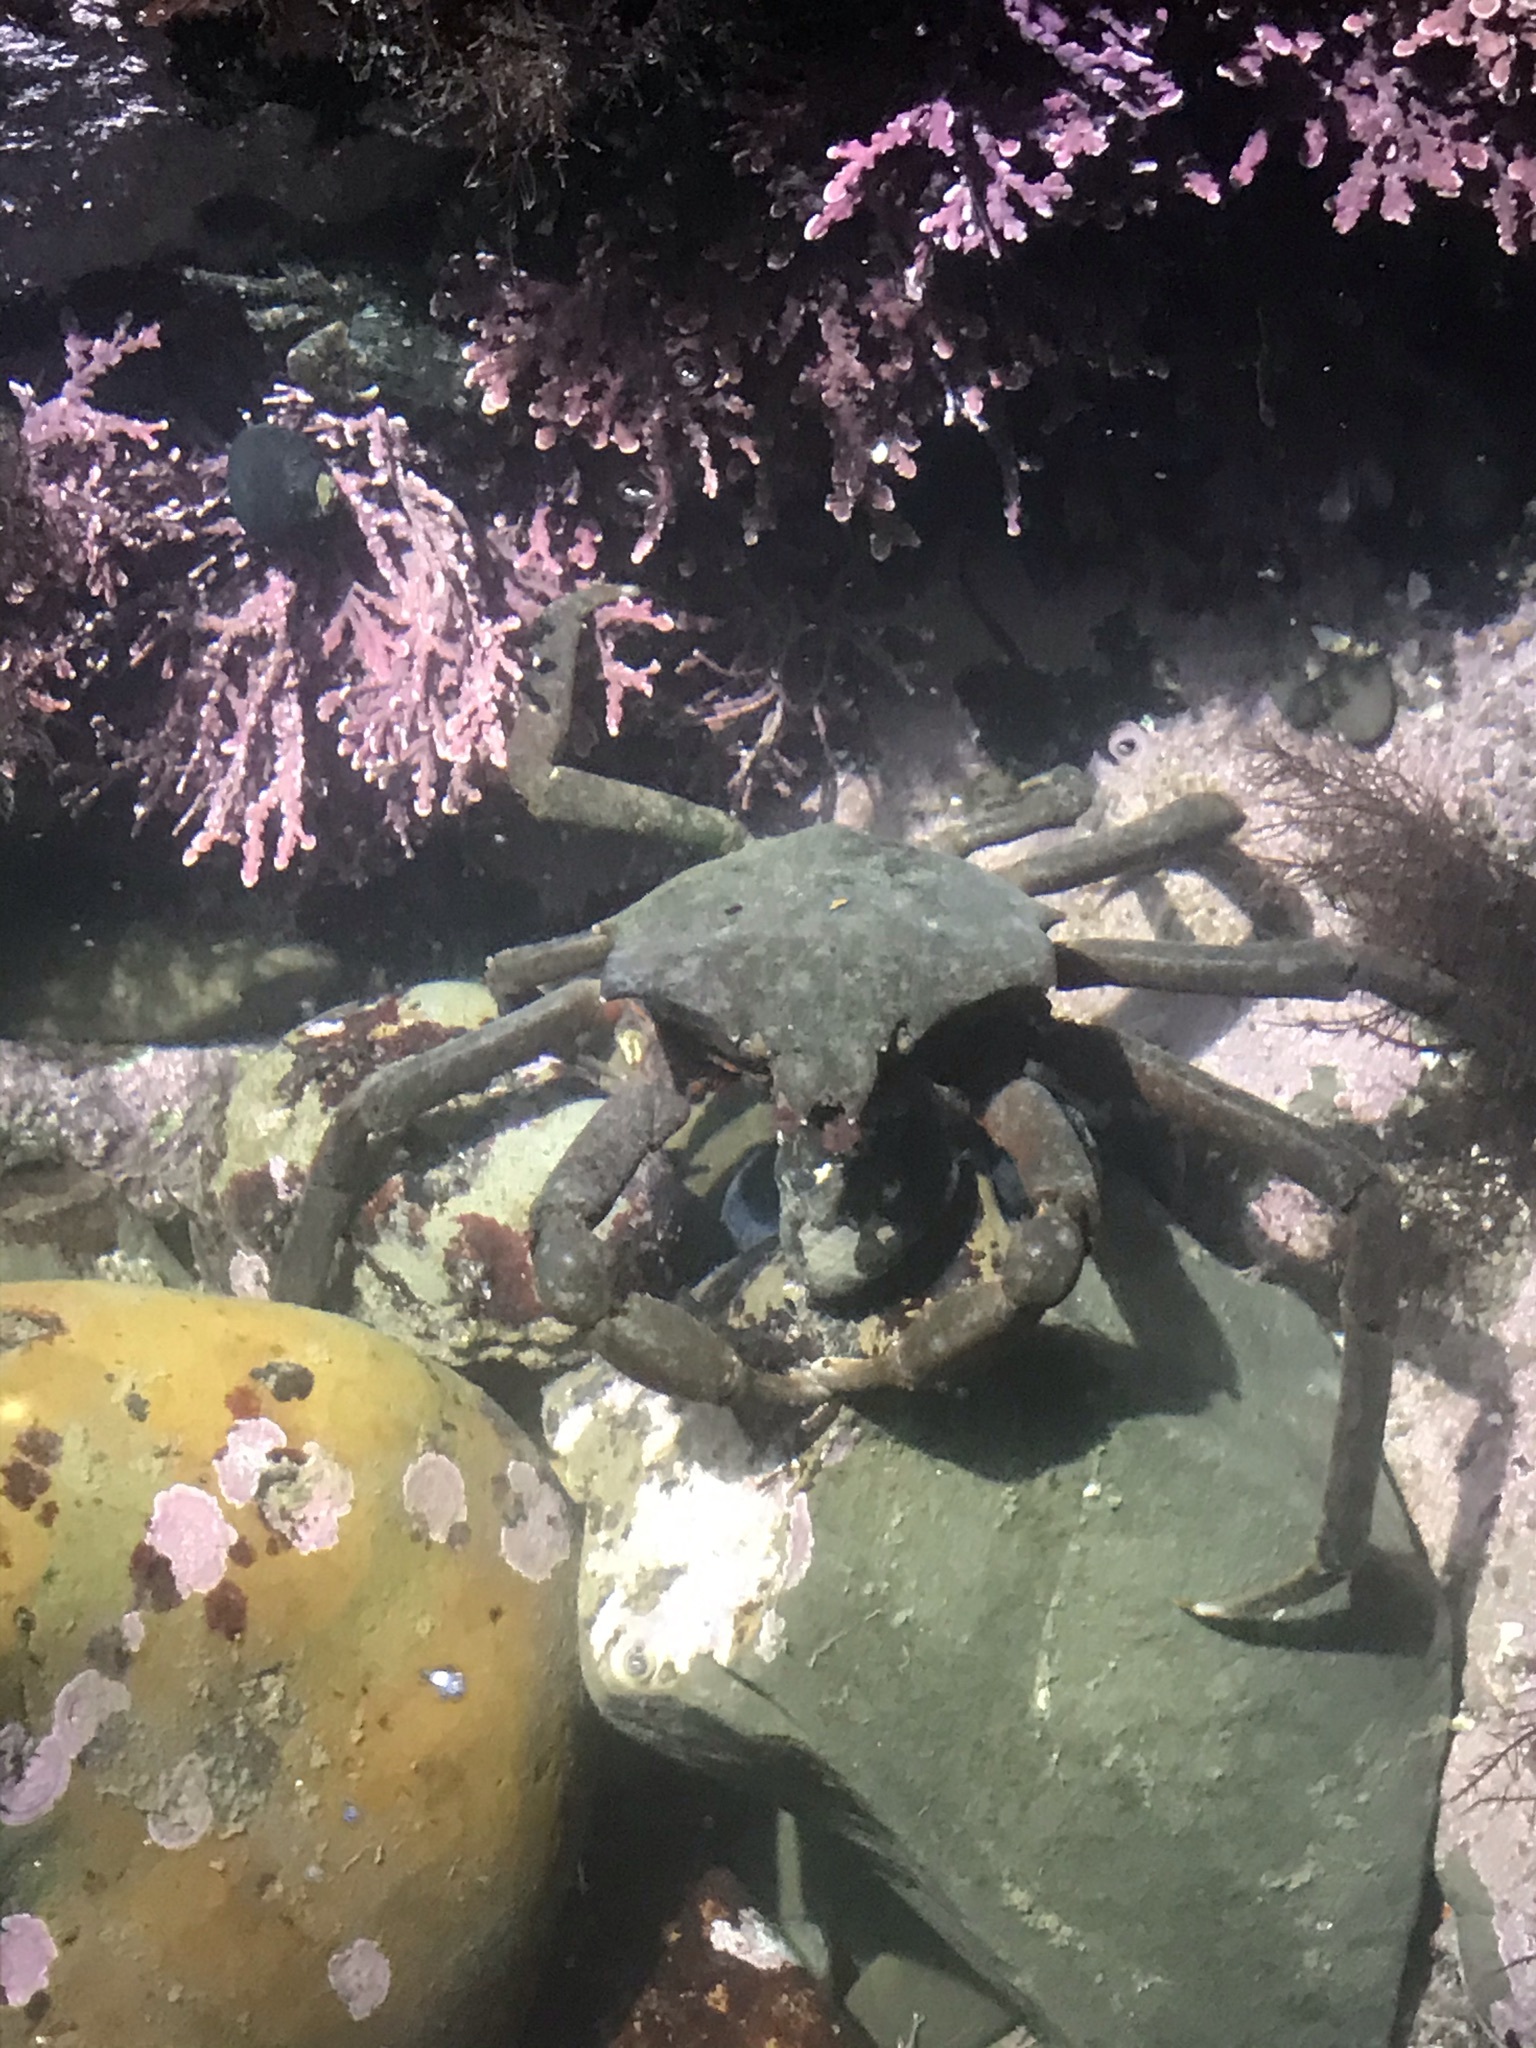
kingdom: Animalia
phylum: Arthropoda
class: Malacostraca
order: Decapoda
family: Epialtidae
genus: Pugettia
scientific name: Pugettia producta
